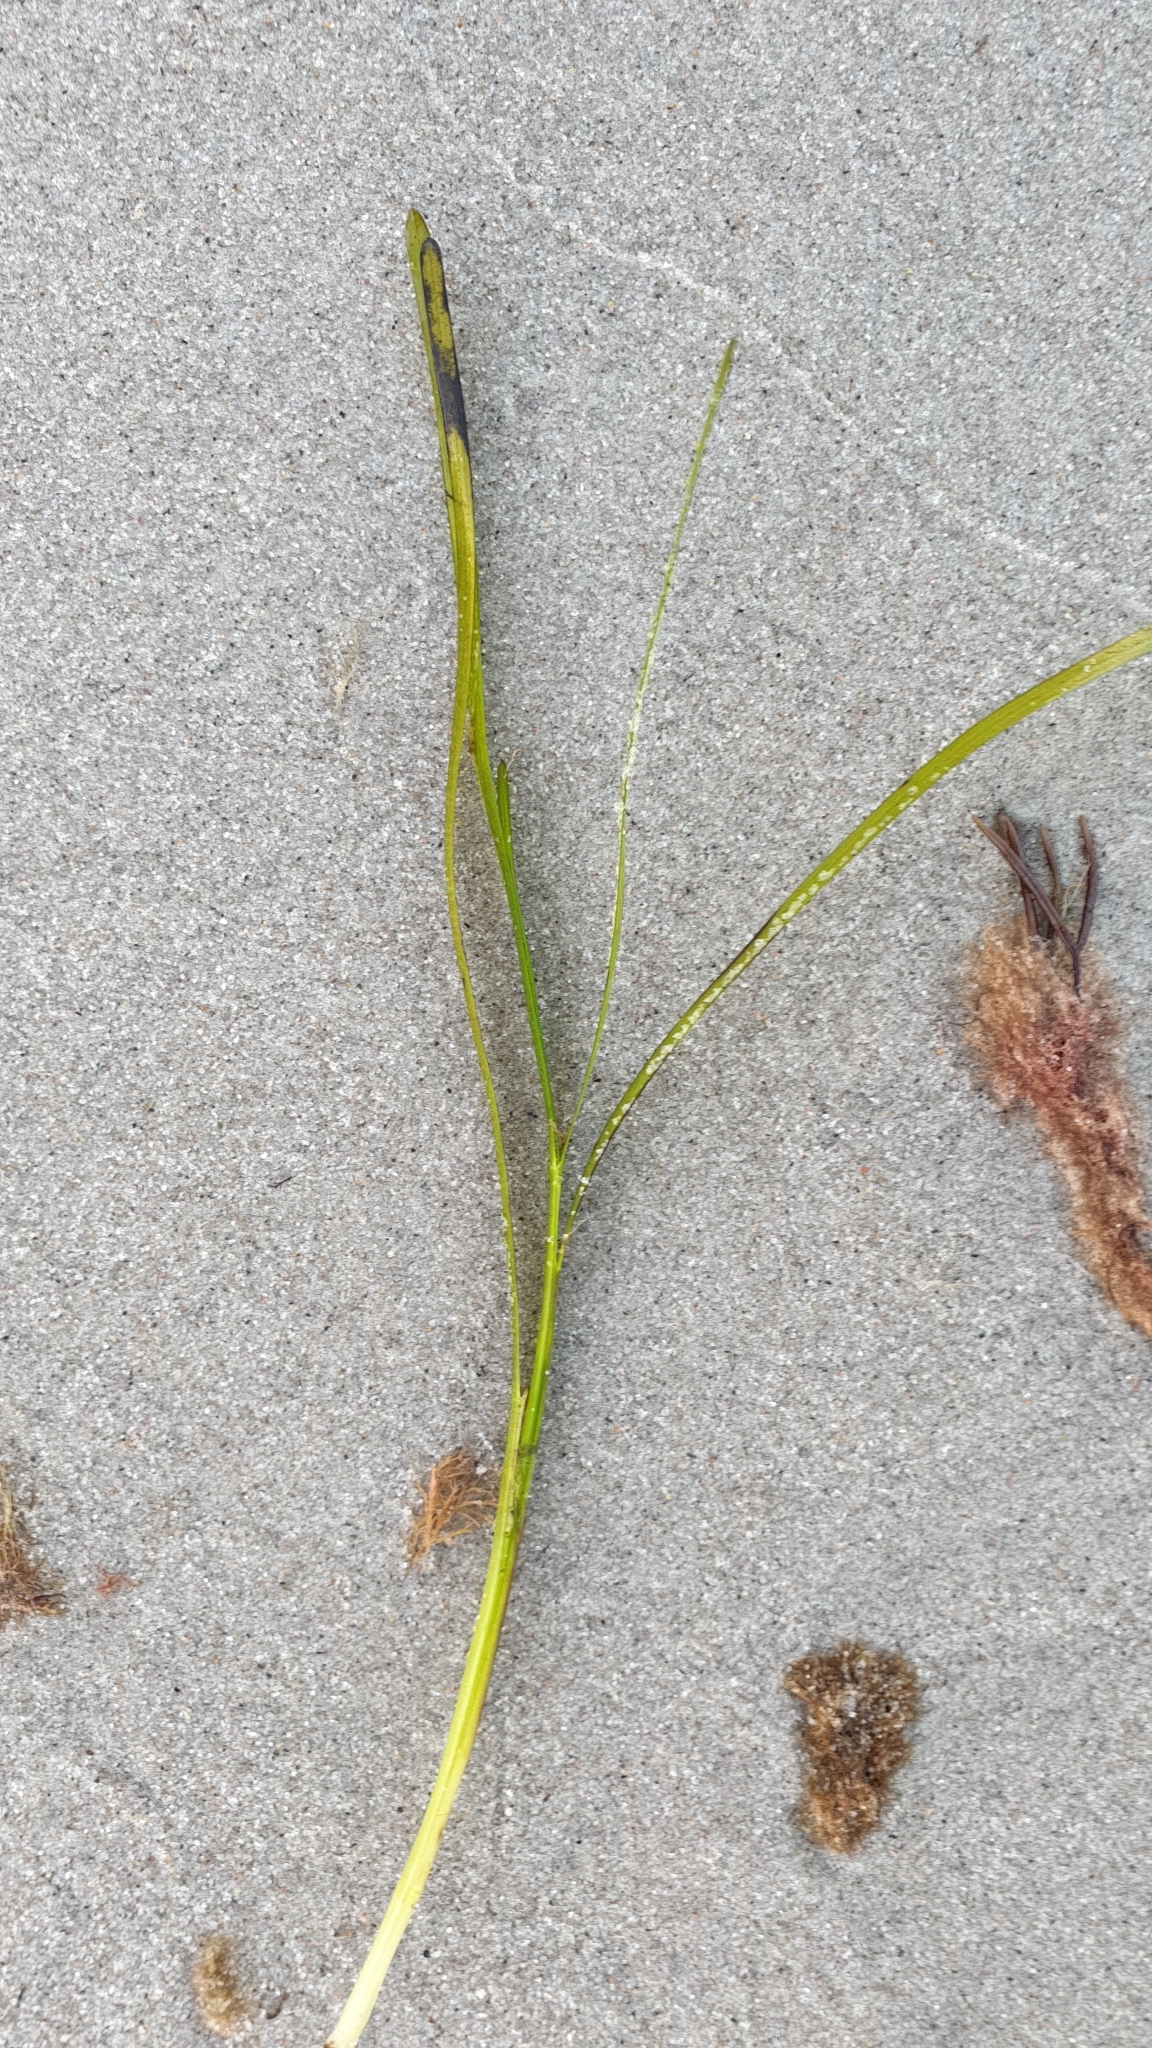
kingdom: Plantae
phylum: Tracheophyta
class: Liliopsida
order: Alismatales
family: Zosteraceae
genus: Zostera
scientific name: Zostera marina
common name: Eelgrass
